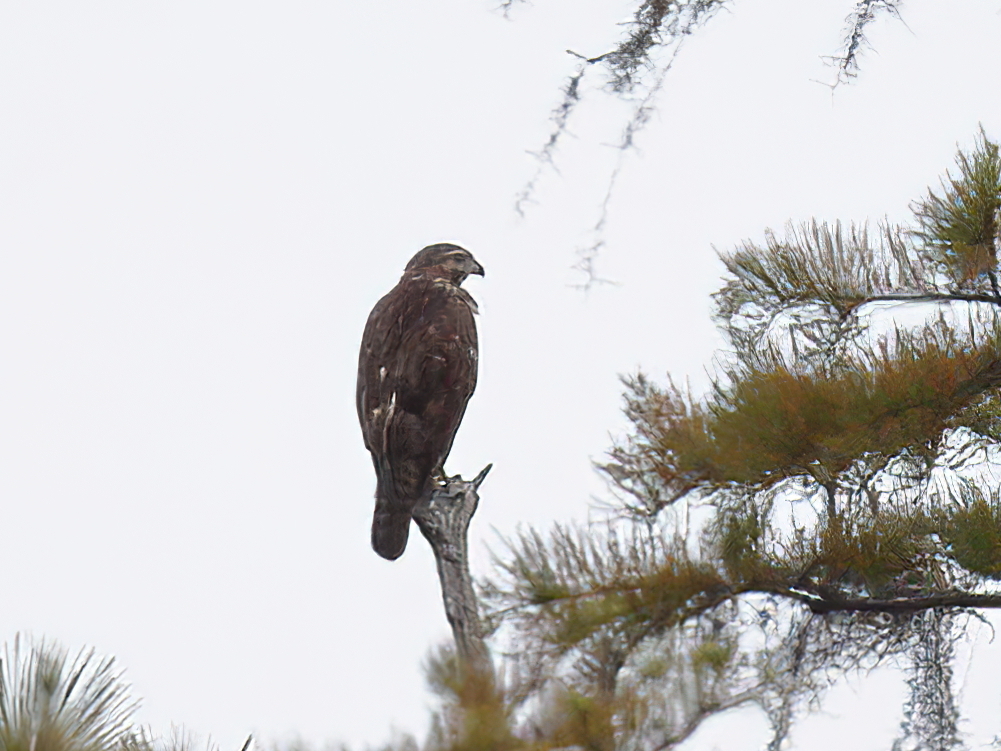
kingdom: Animalia
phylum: Chordata
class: Aves
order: Accipitriformes
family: Accipitridae
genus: Buteo
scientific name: Buteo lineatus
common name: Red-shouldered hawk
